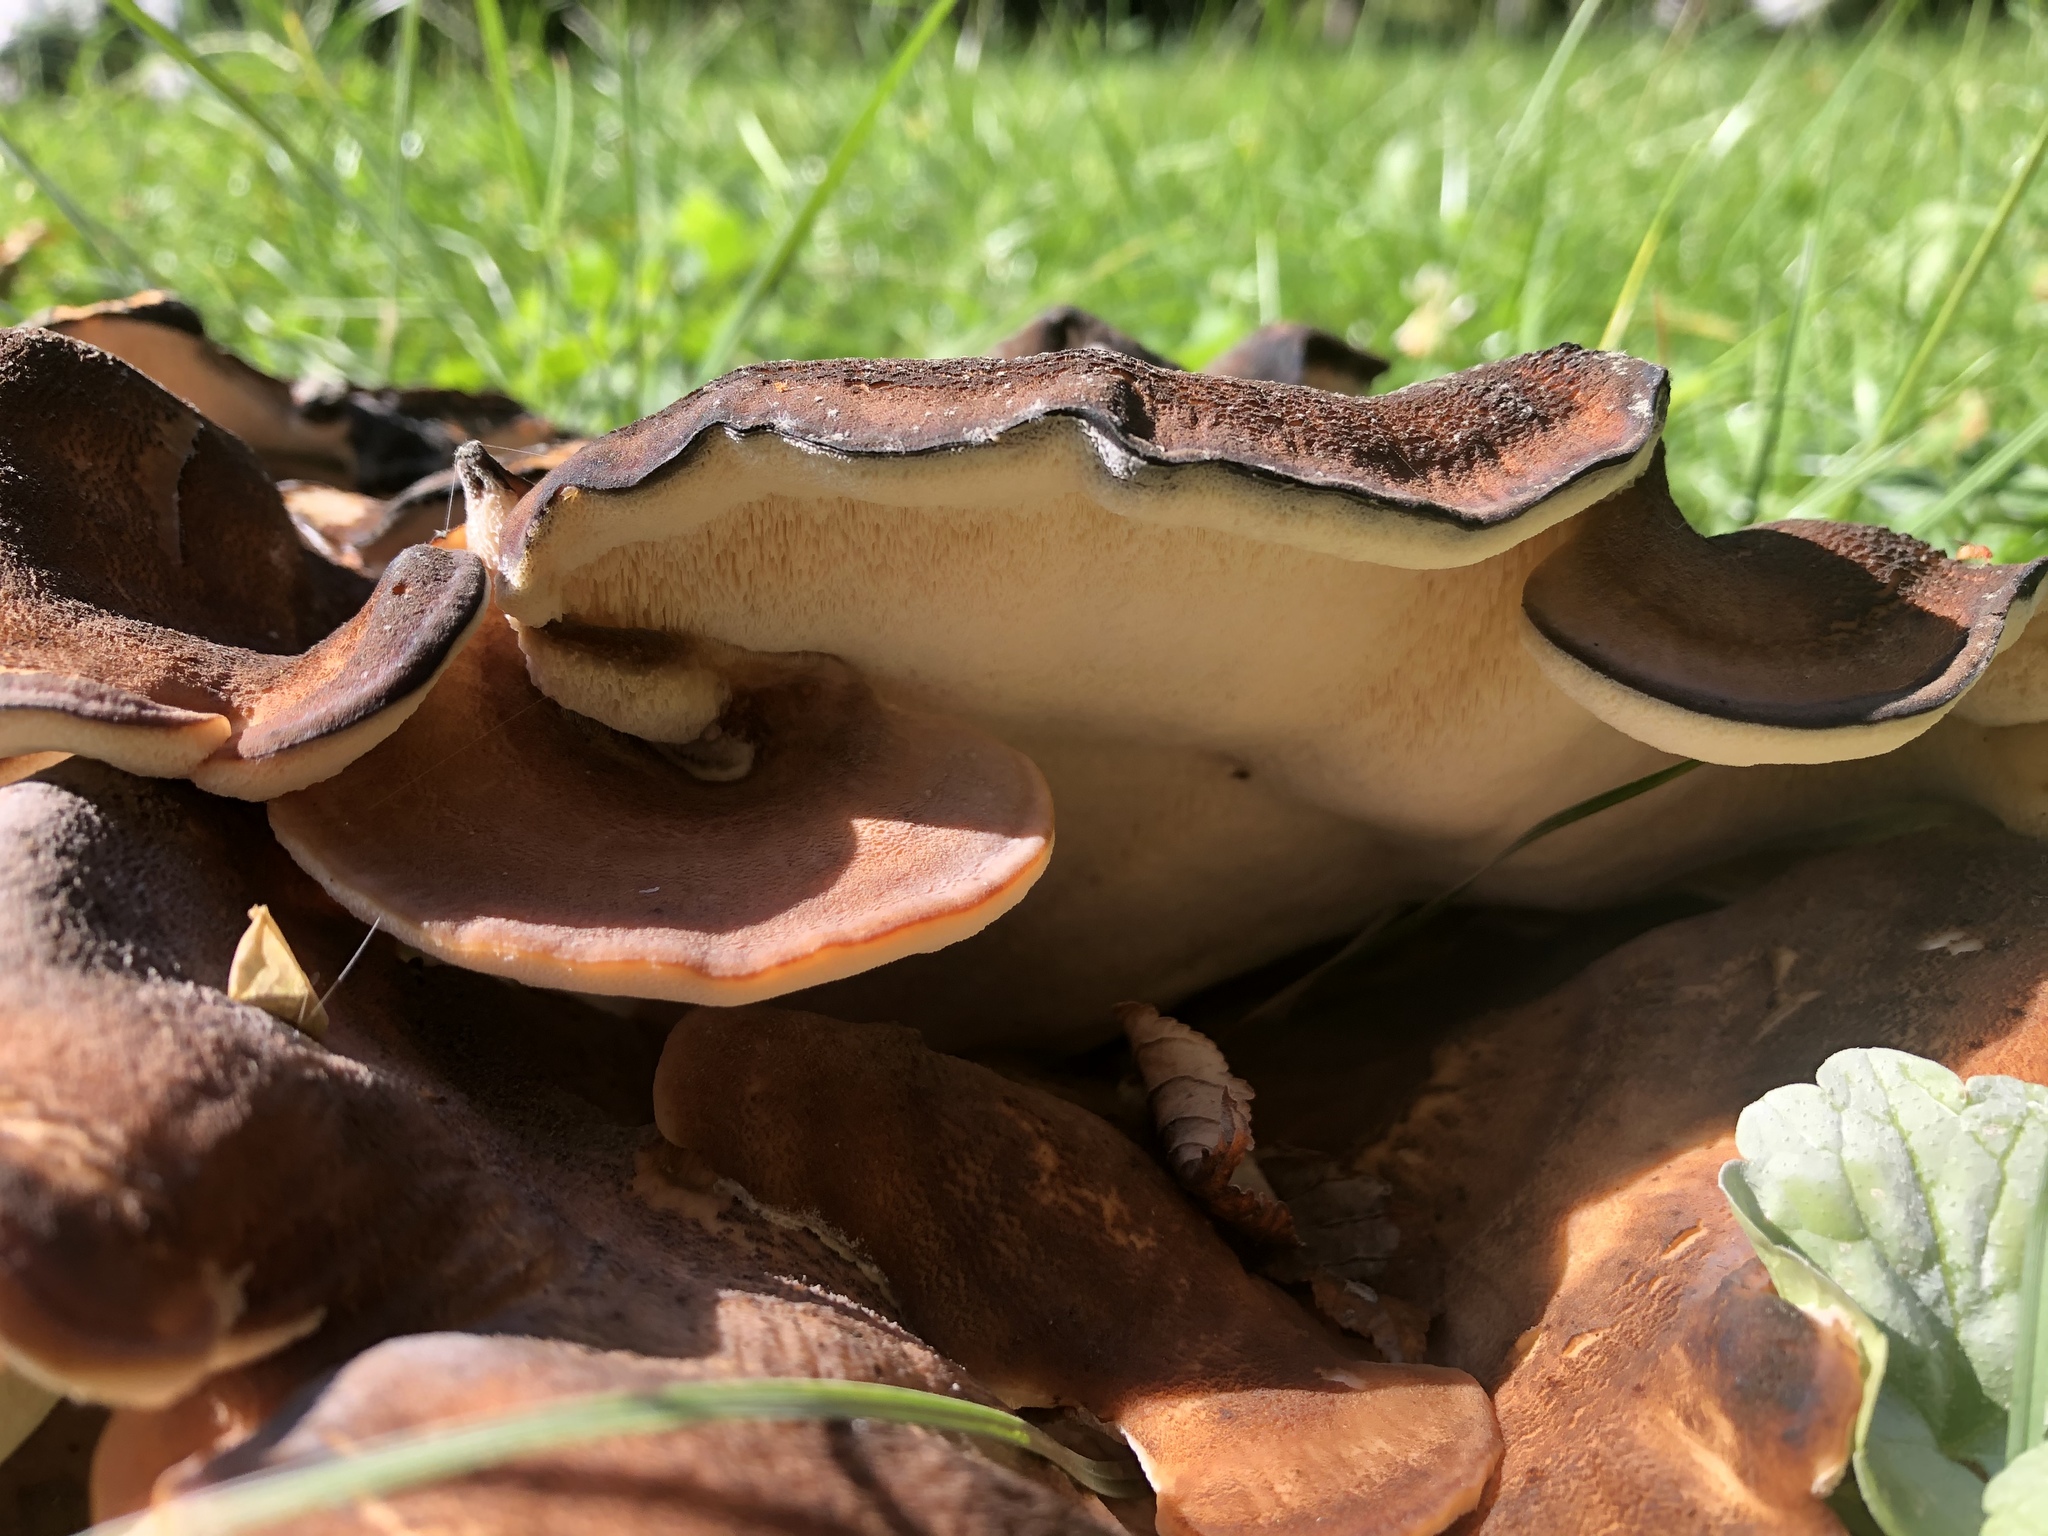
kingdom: Fungi
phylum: Basidiomycota
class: Agaricomycetes
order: Polyporales
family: Meripilaceae
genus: Meripilus
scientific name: Meripilus giganteus
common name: Giant polypore
